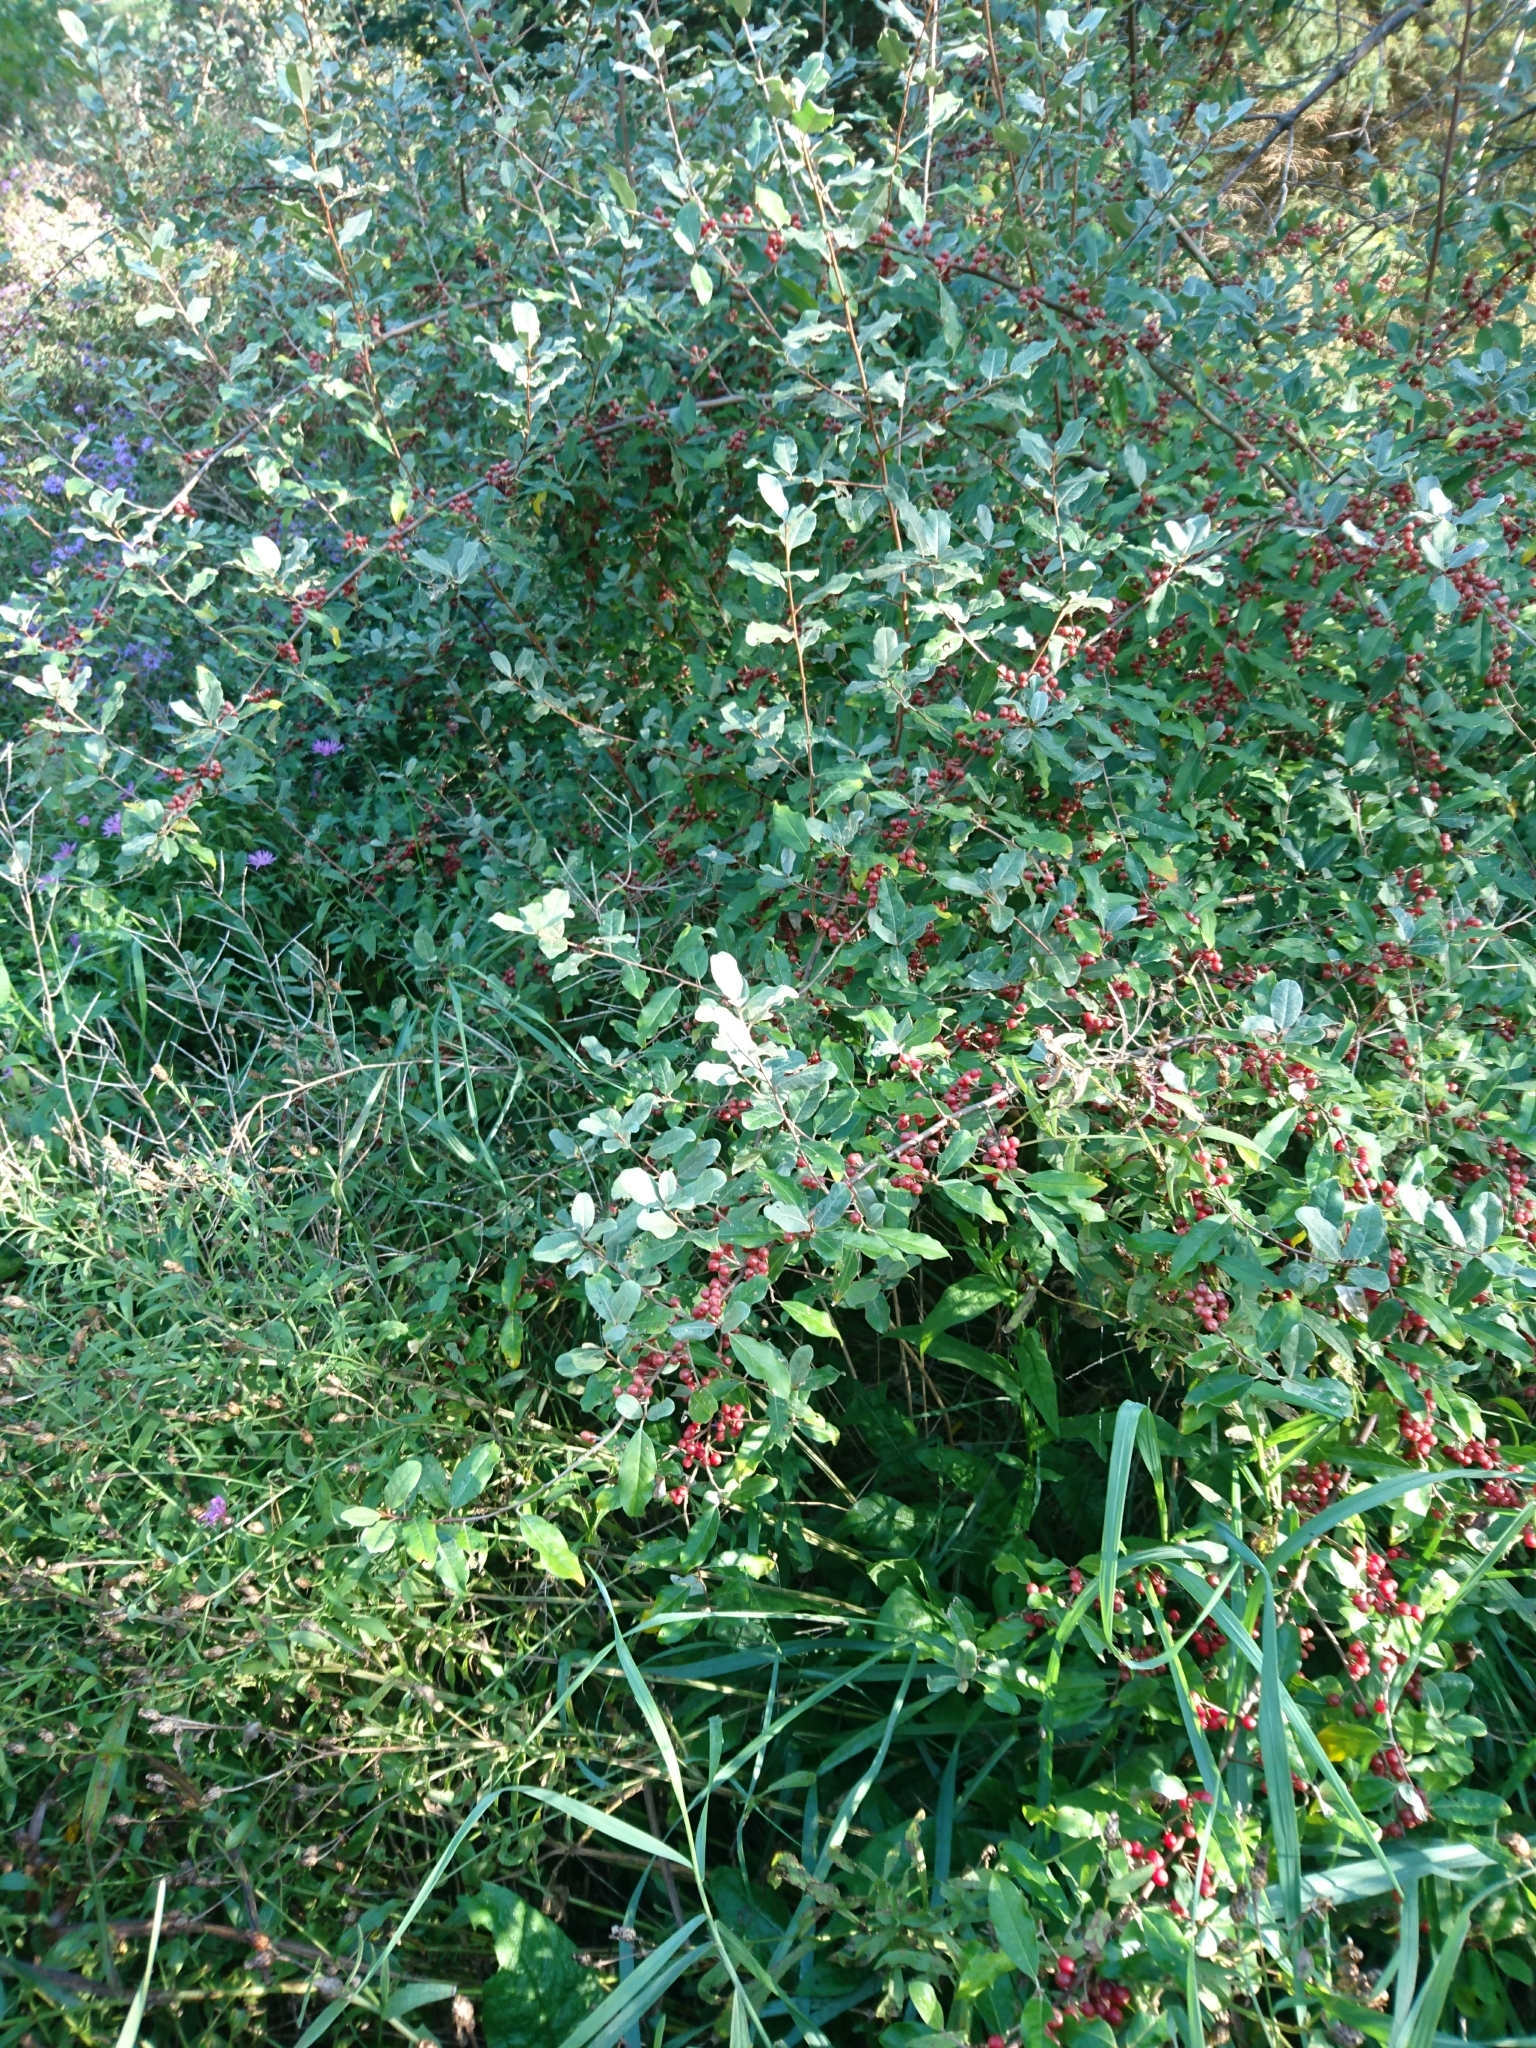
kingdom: Plantae
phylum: Tracheophyta
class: Magnoliopsida
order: Rosales
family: Elaeagnaceae
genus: Elaeagnus
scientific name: Elaeagnus umbellata
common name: Autumn olive
